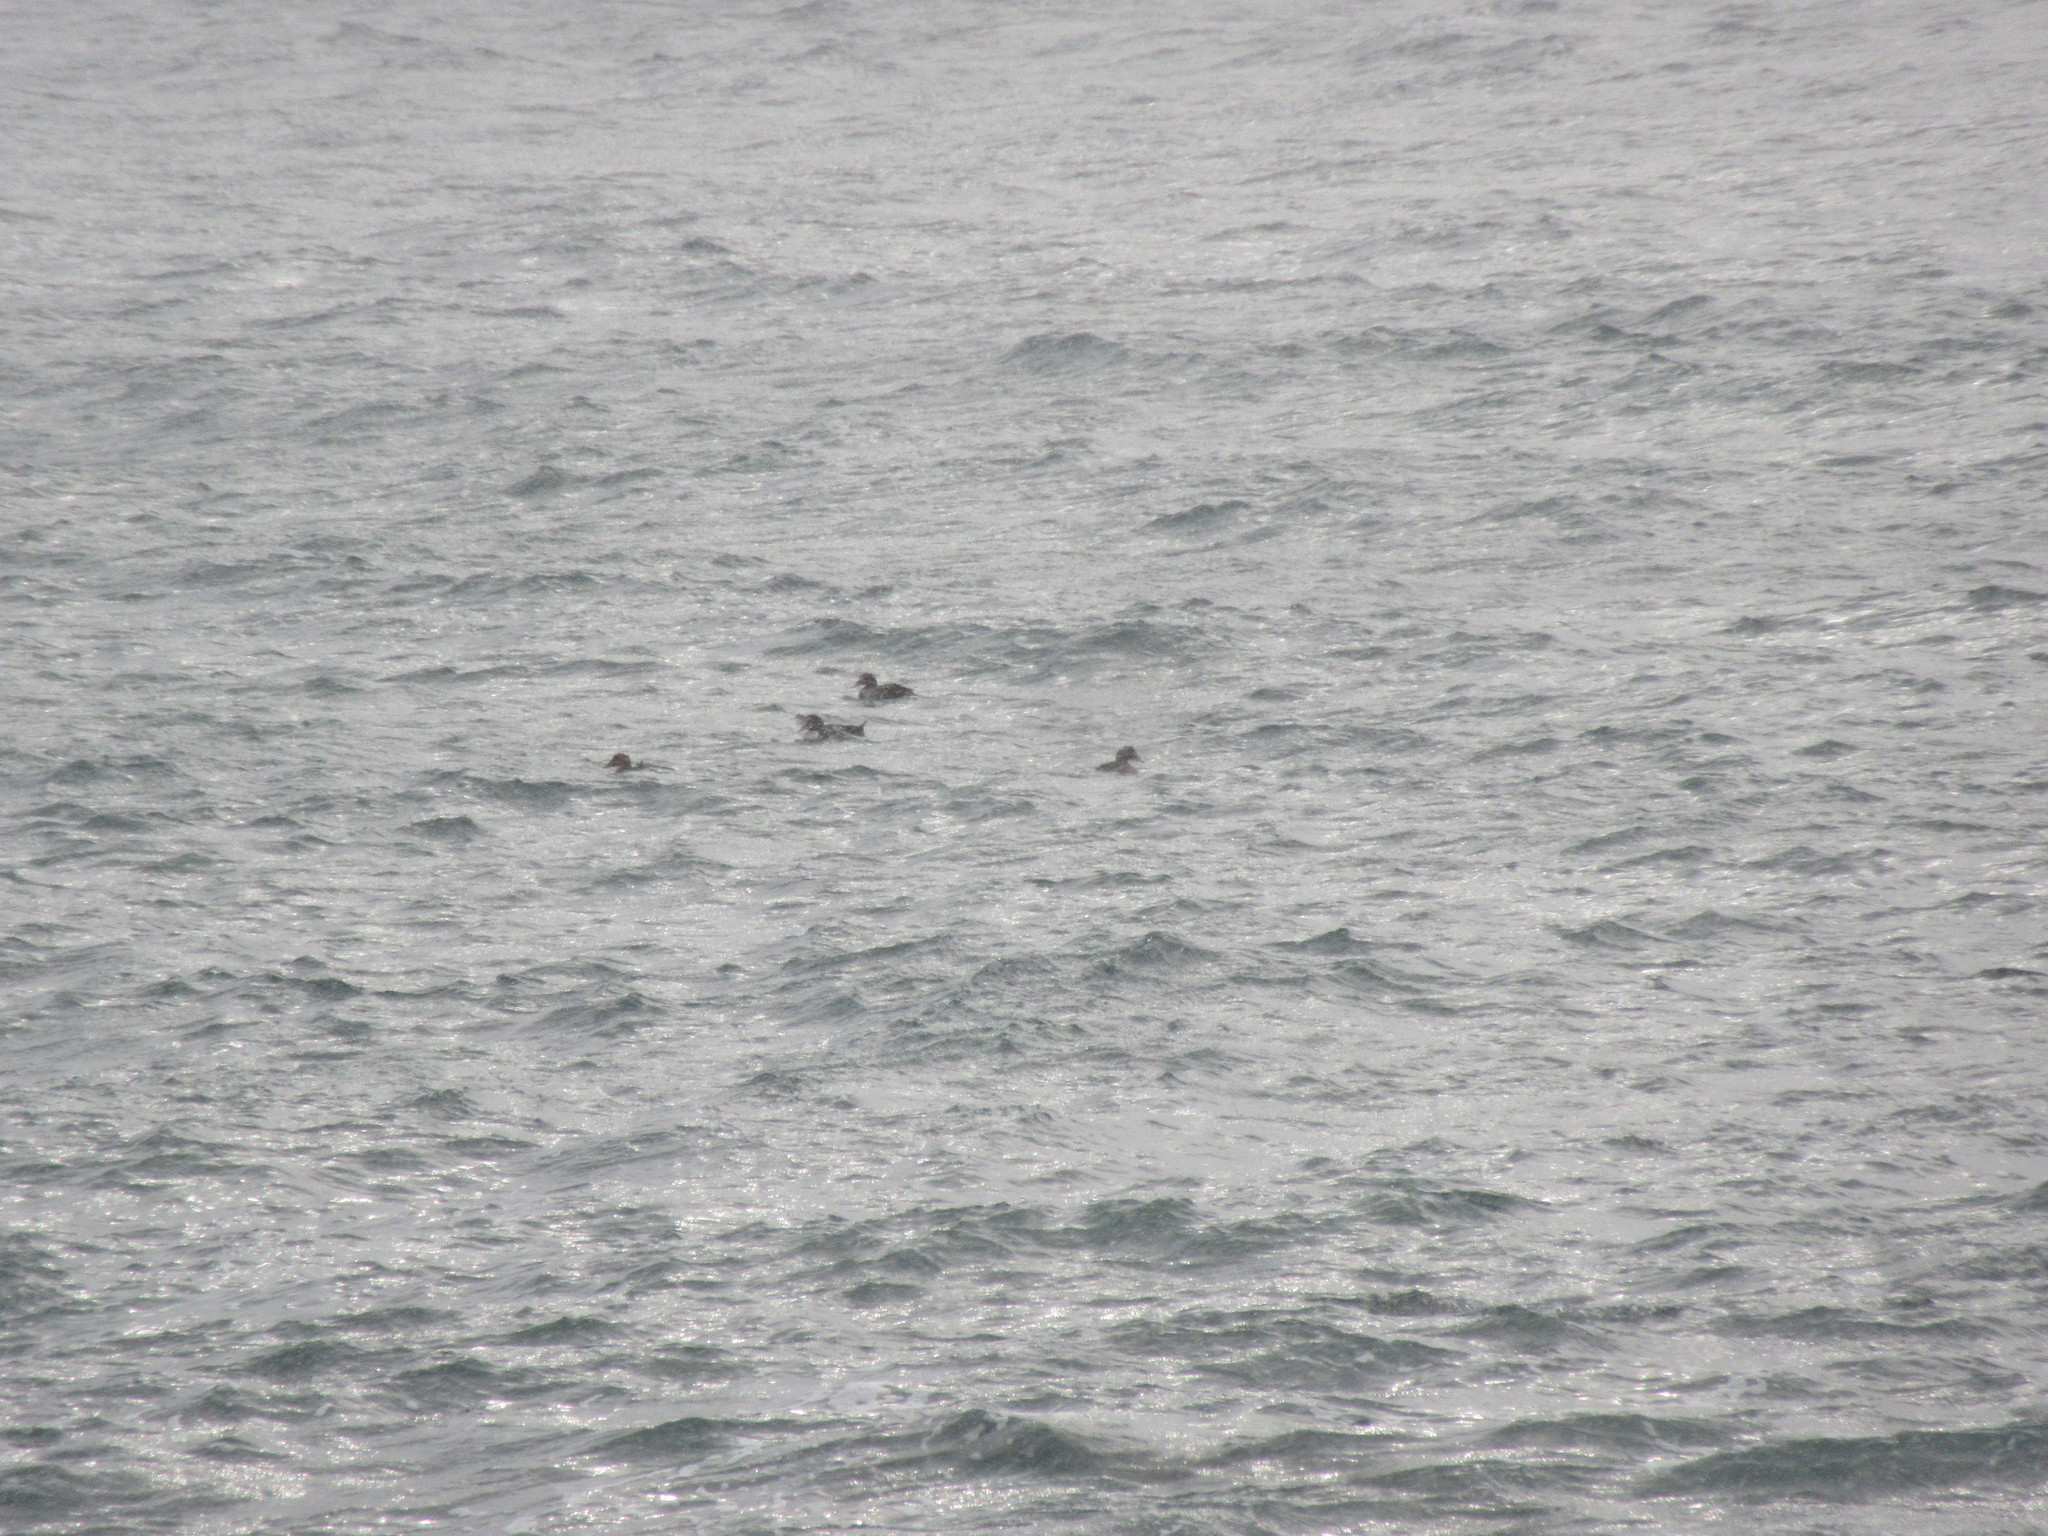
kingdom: Animalia
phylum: Chordata
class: Aves
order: Anseriformes
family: Anatidae
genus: Somateria
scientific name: Somateria mollissima
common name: Common eider
